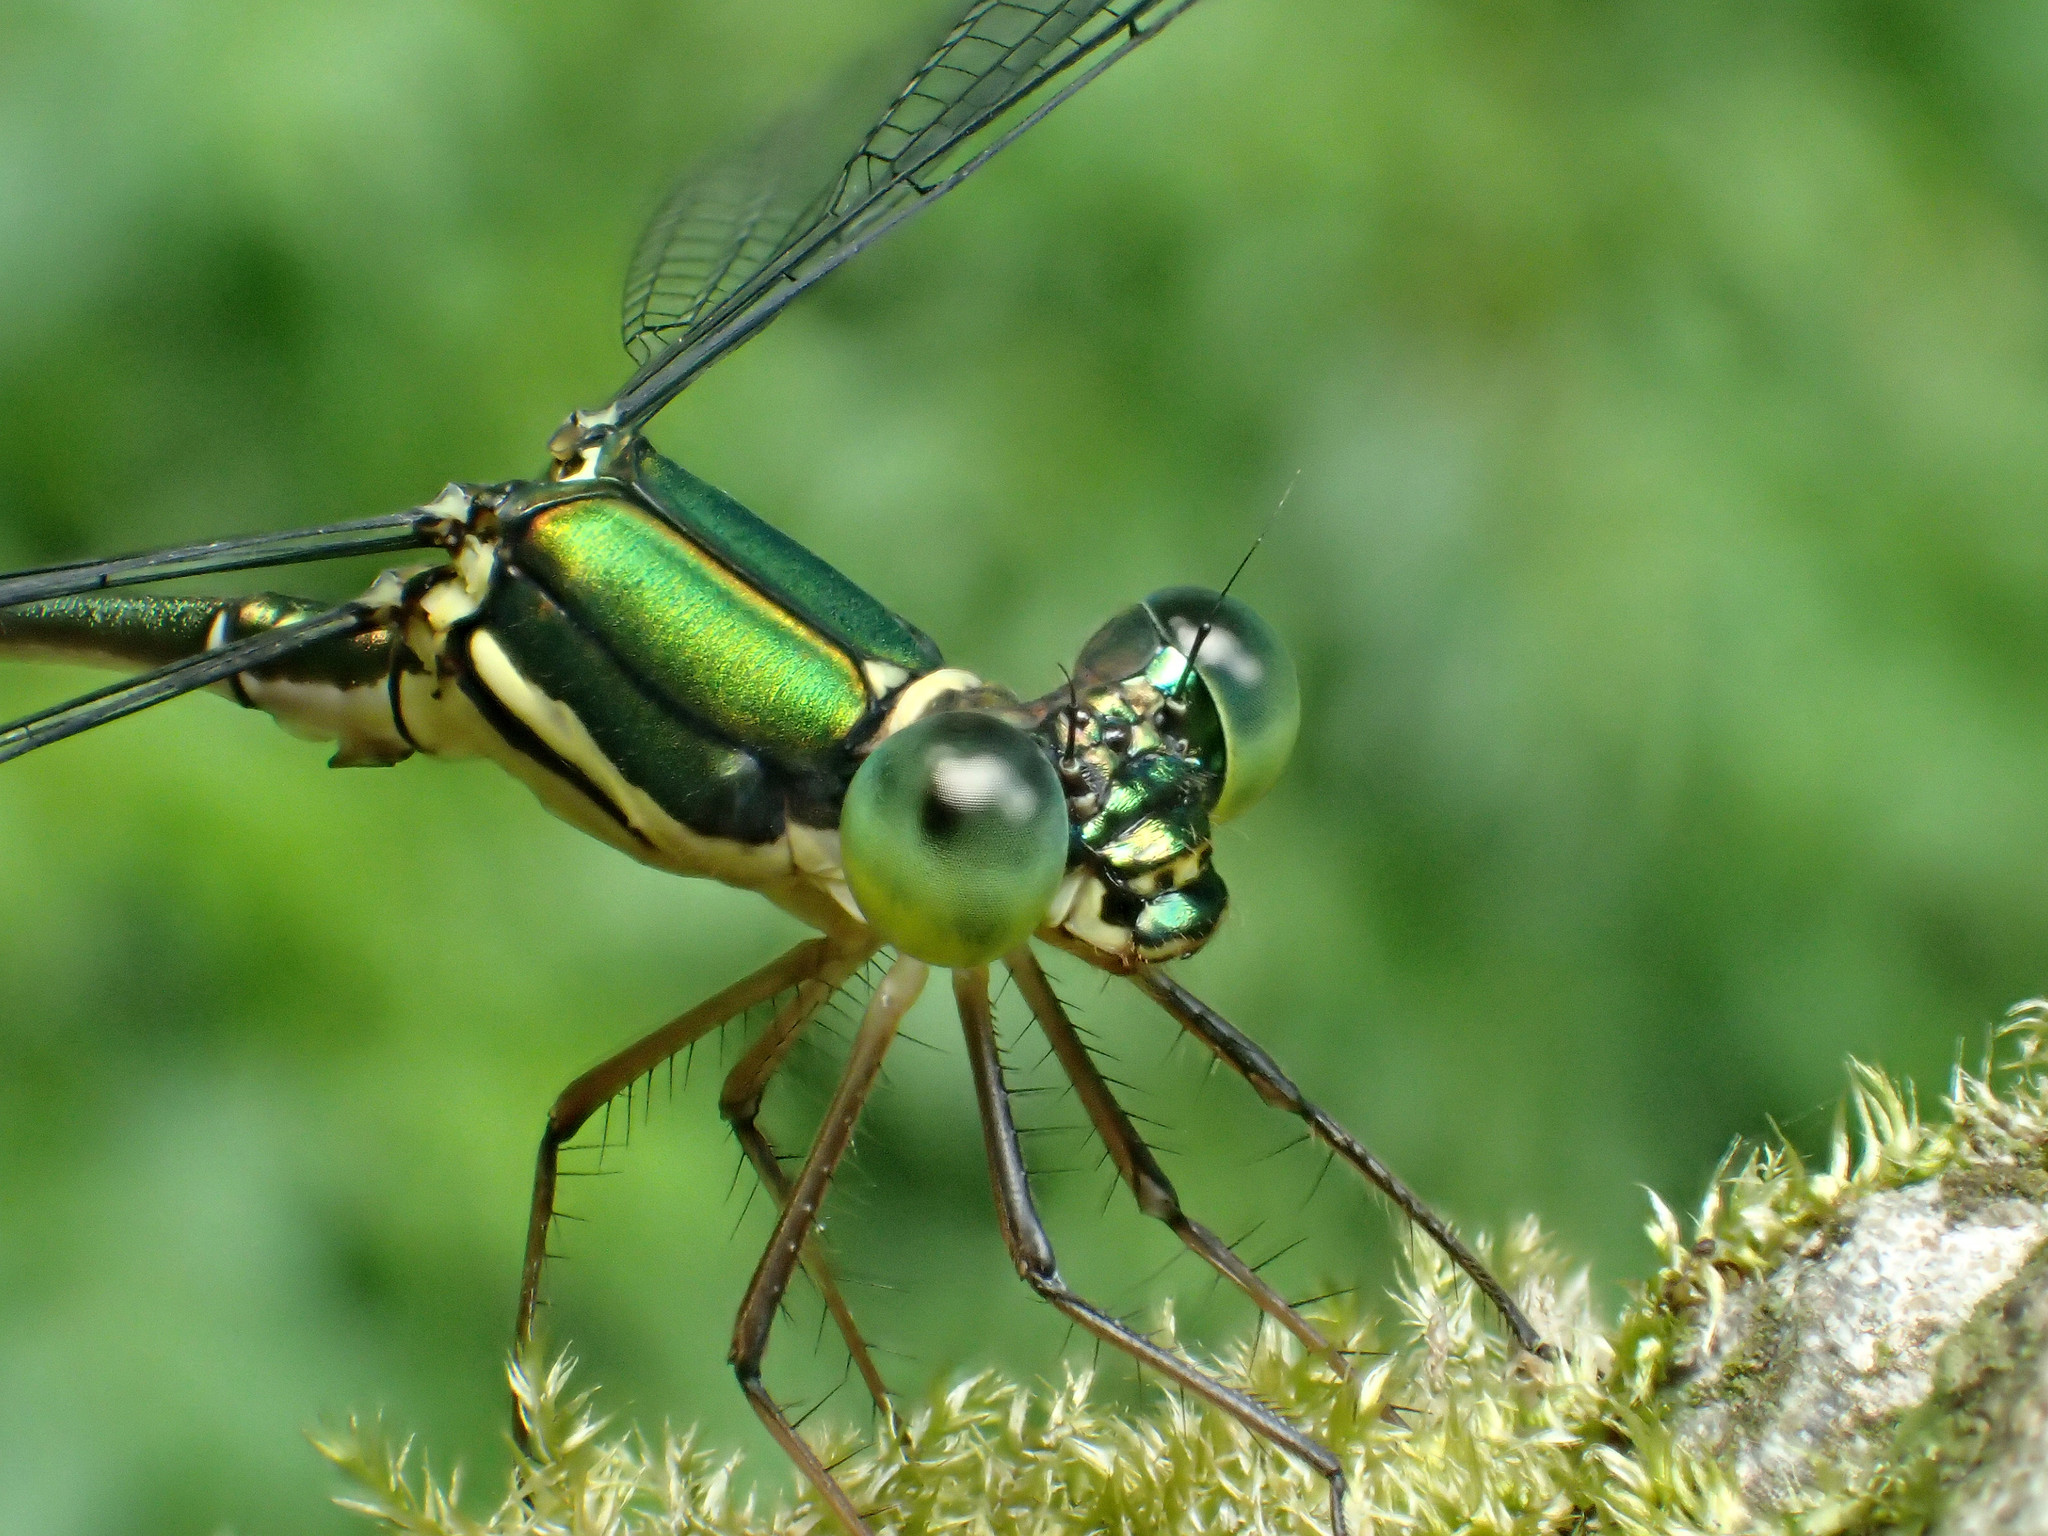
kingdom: Animalia
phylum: Arthropoda
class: Insecta
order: Odonata
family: Synlestidae
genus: Megalestes
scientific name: Megalestes riccii
